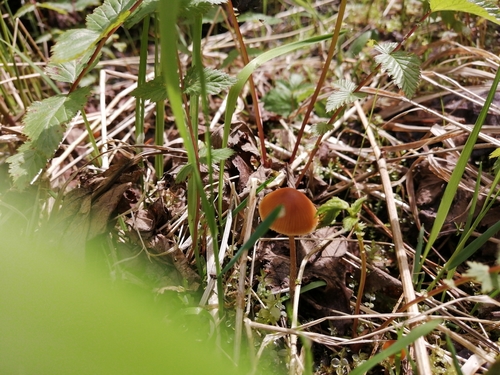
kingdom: Fungi
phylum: Basidiomycota
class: Agaricomycetes
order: Agaricales
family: Bolbitiaceae
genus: Conocybe
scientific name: Conocybe
